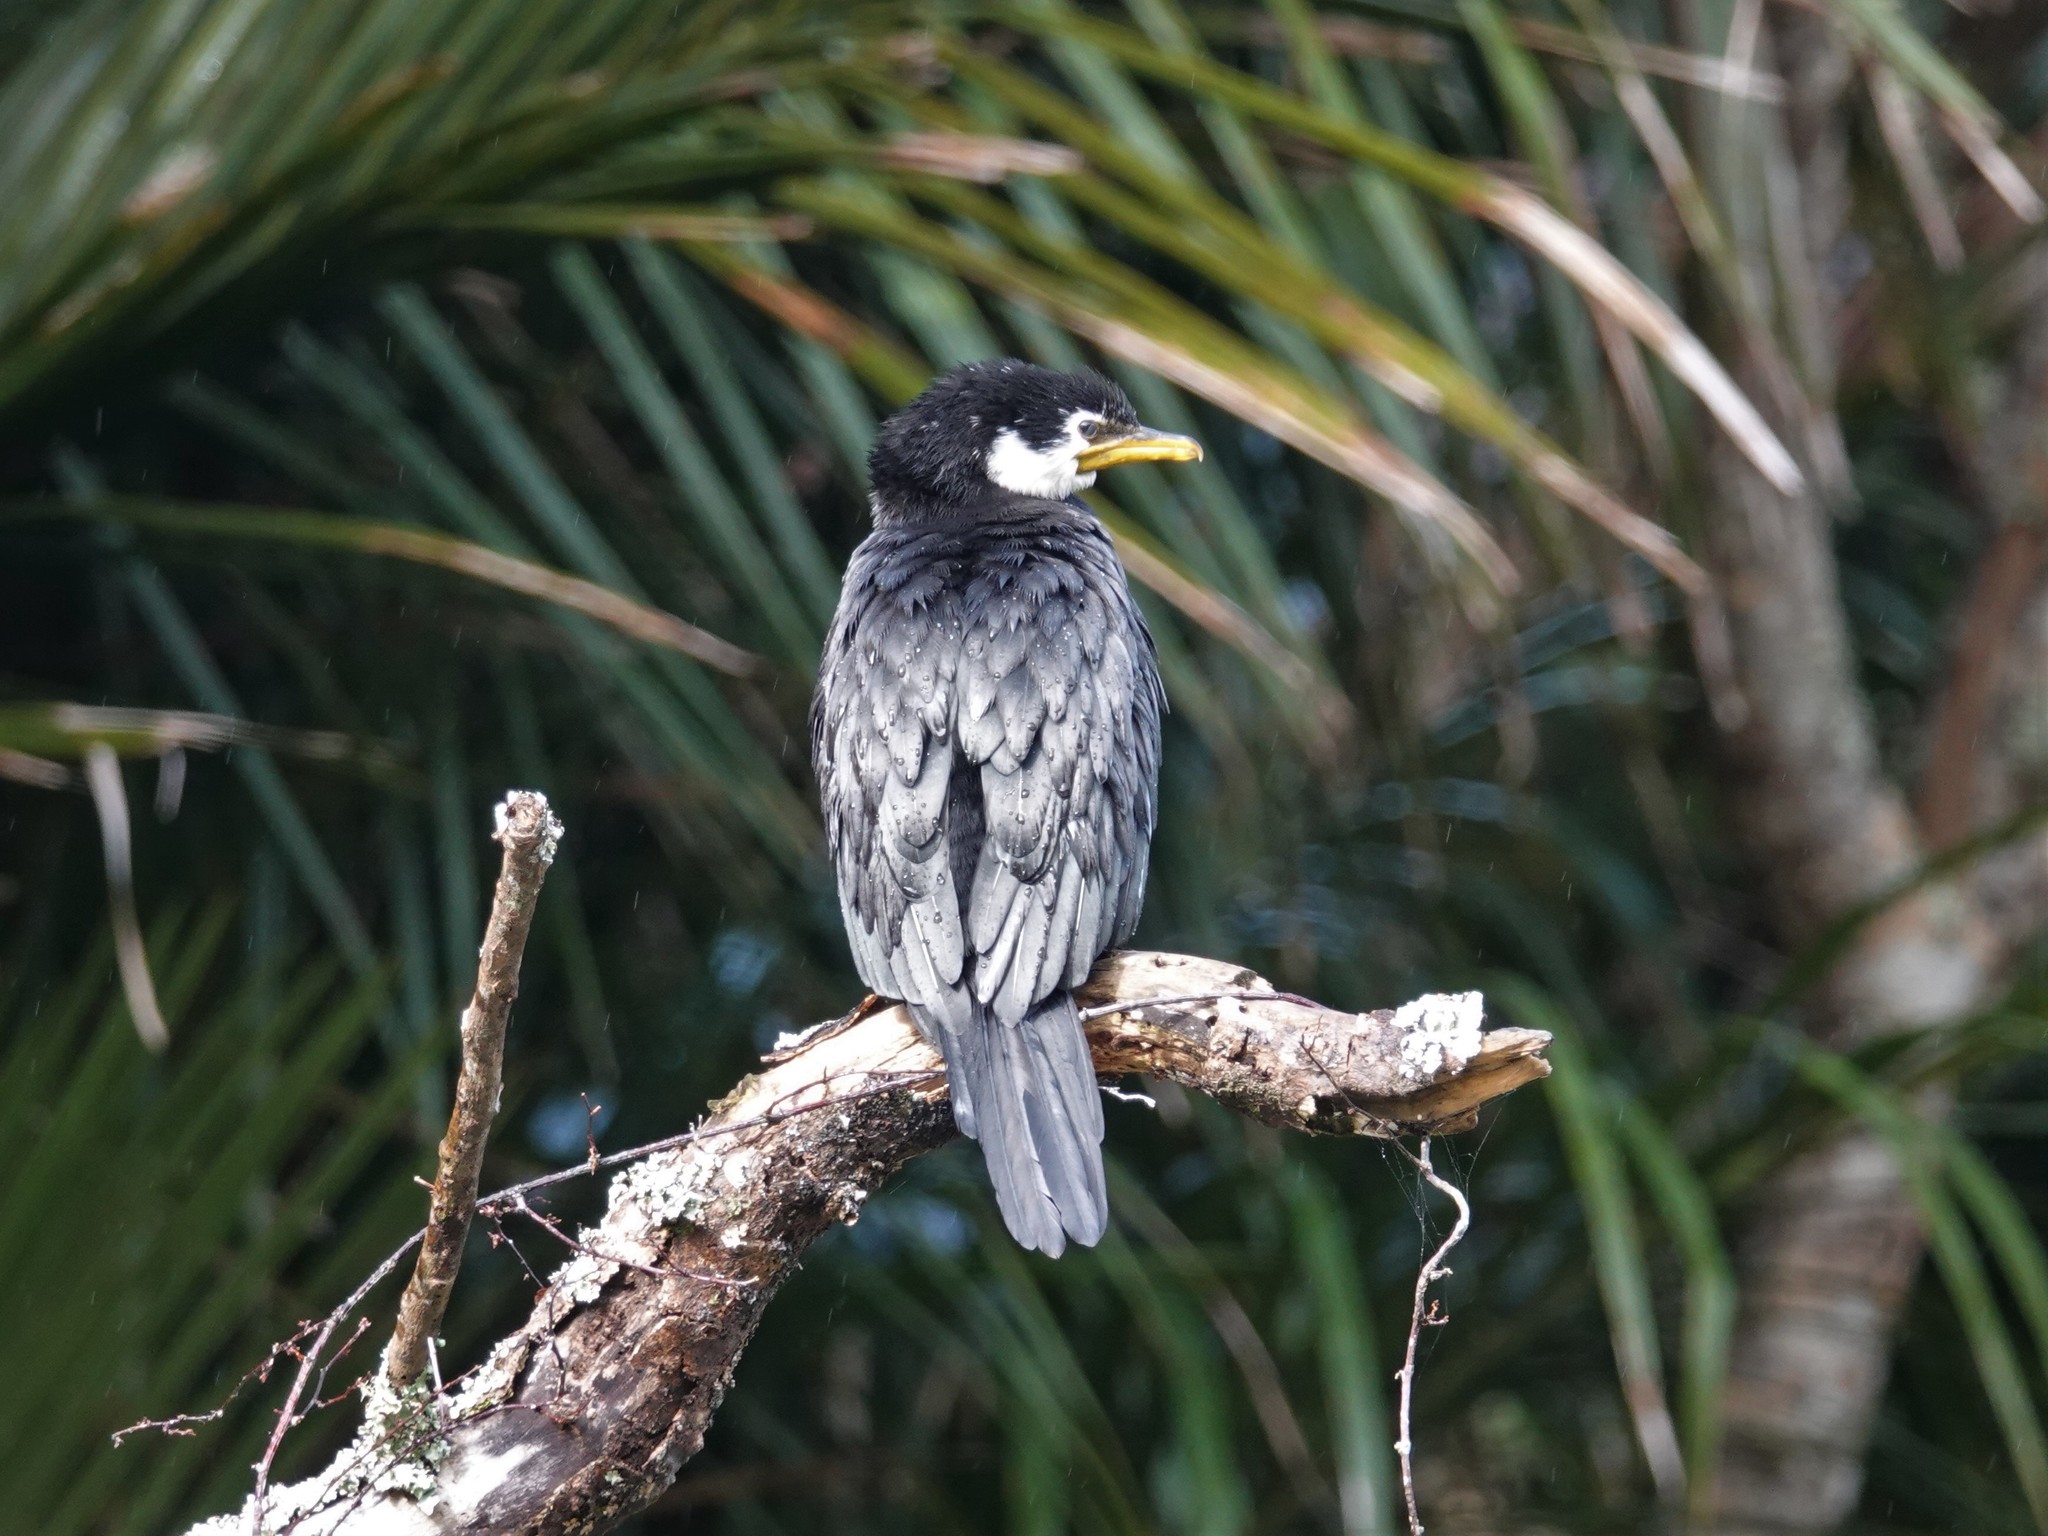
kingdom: Animalia
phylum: Chordata
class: Aves
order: Suliformes
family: Phalacrocoracidae
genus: Microcarbo
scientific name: Microcarbo melanoleucos
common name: Little pied cormorant
